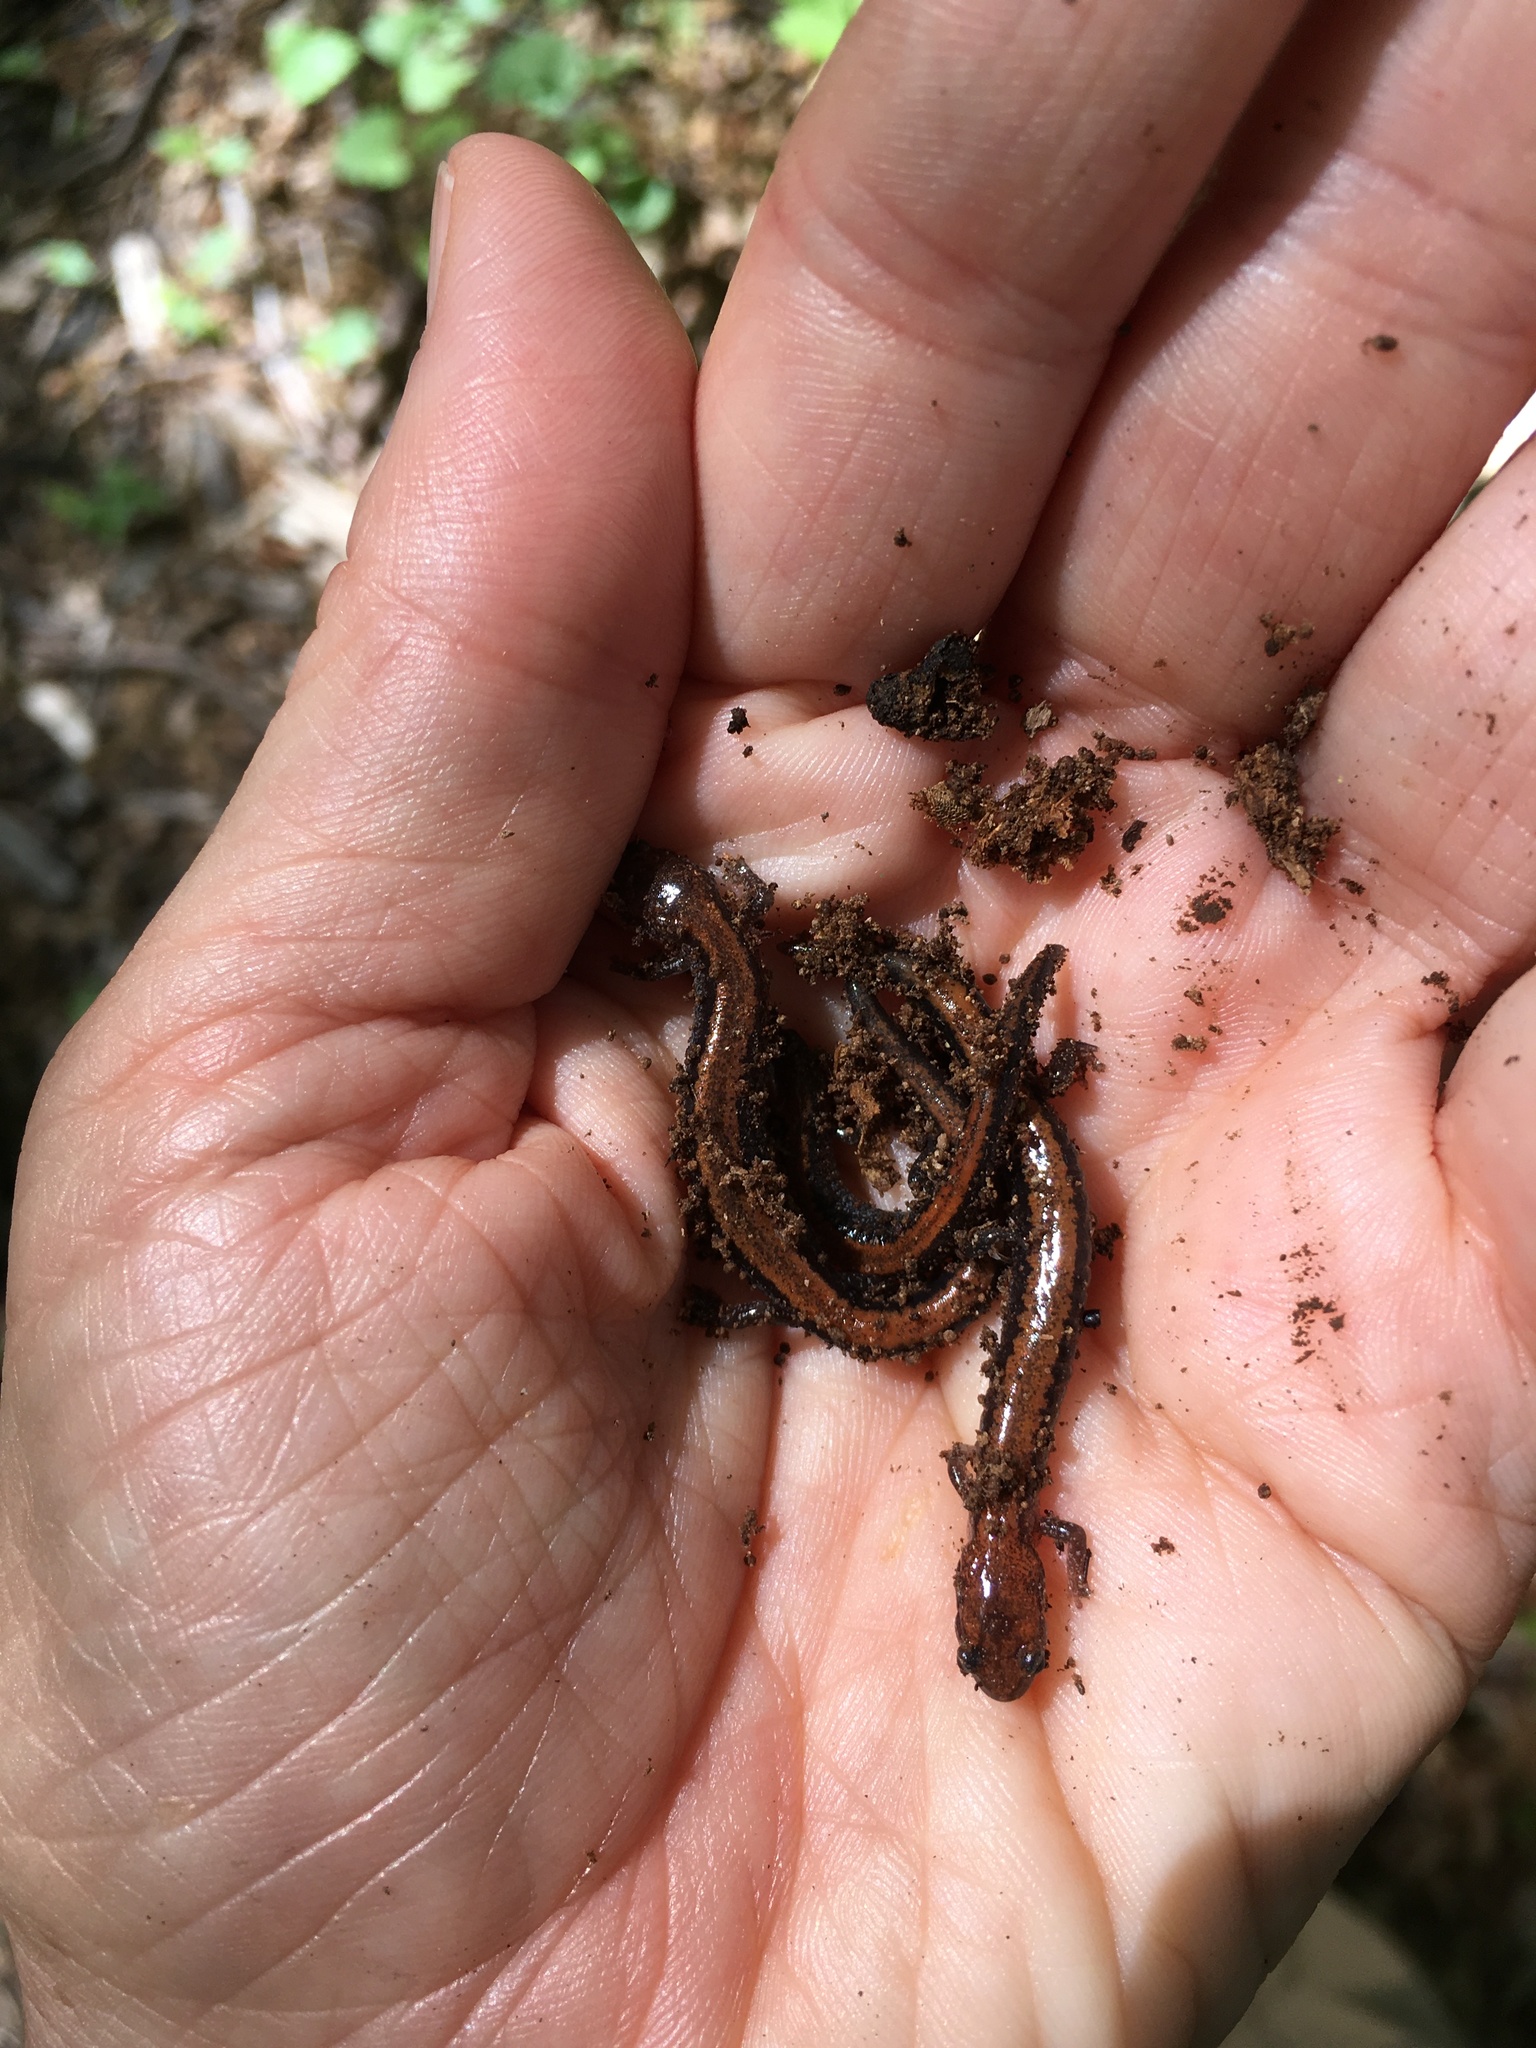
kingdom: Animalia
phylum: Chordata
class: Amphibia
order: Caudata
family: Plethodontidae
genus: Plethodon
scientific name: Plethodon cinereus
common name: Redback salamander
